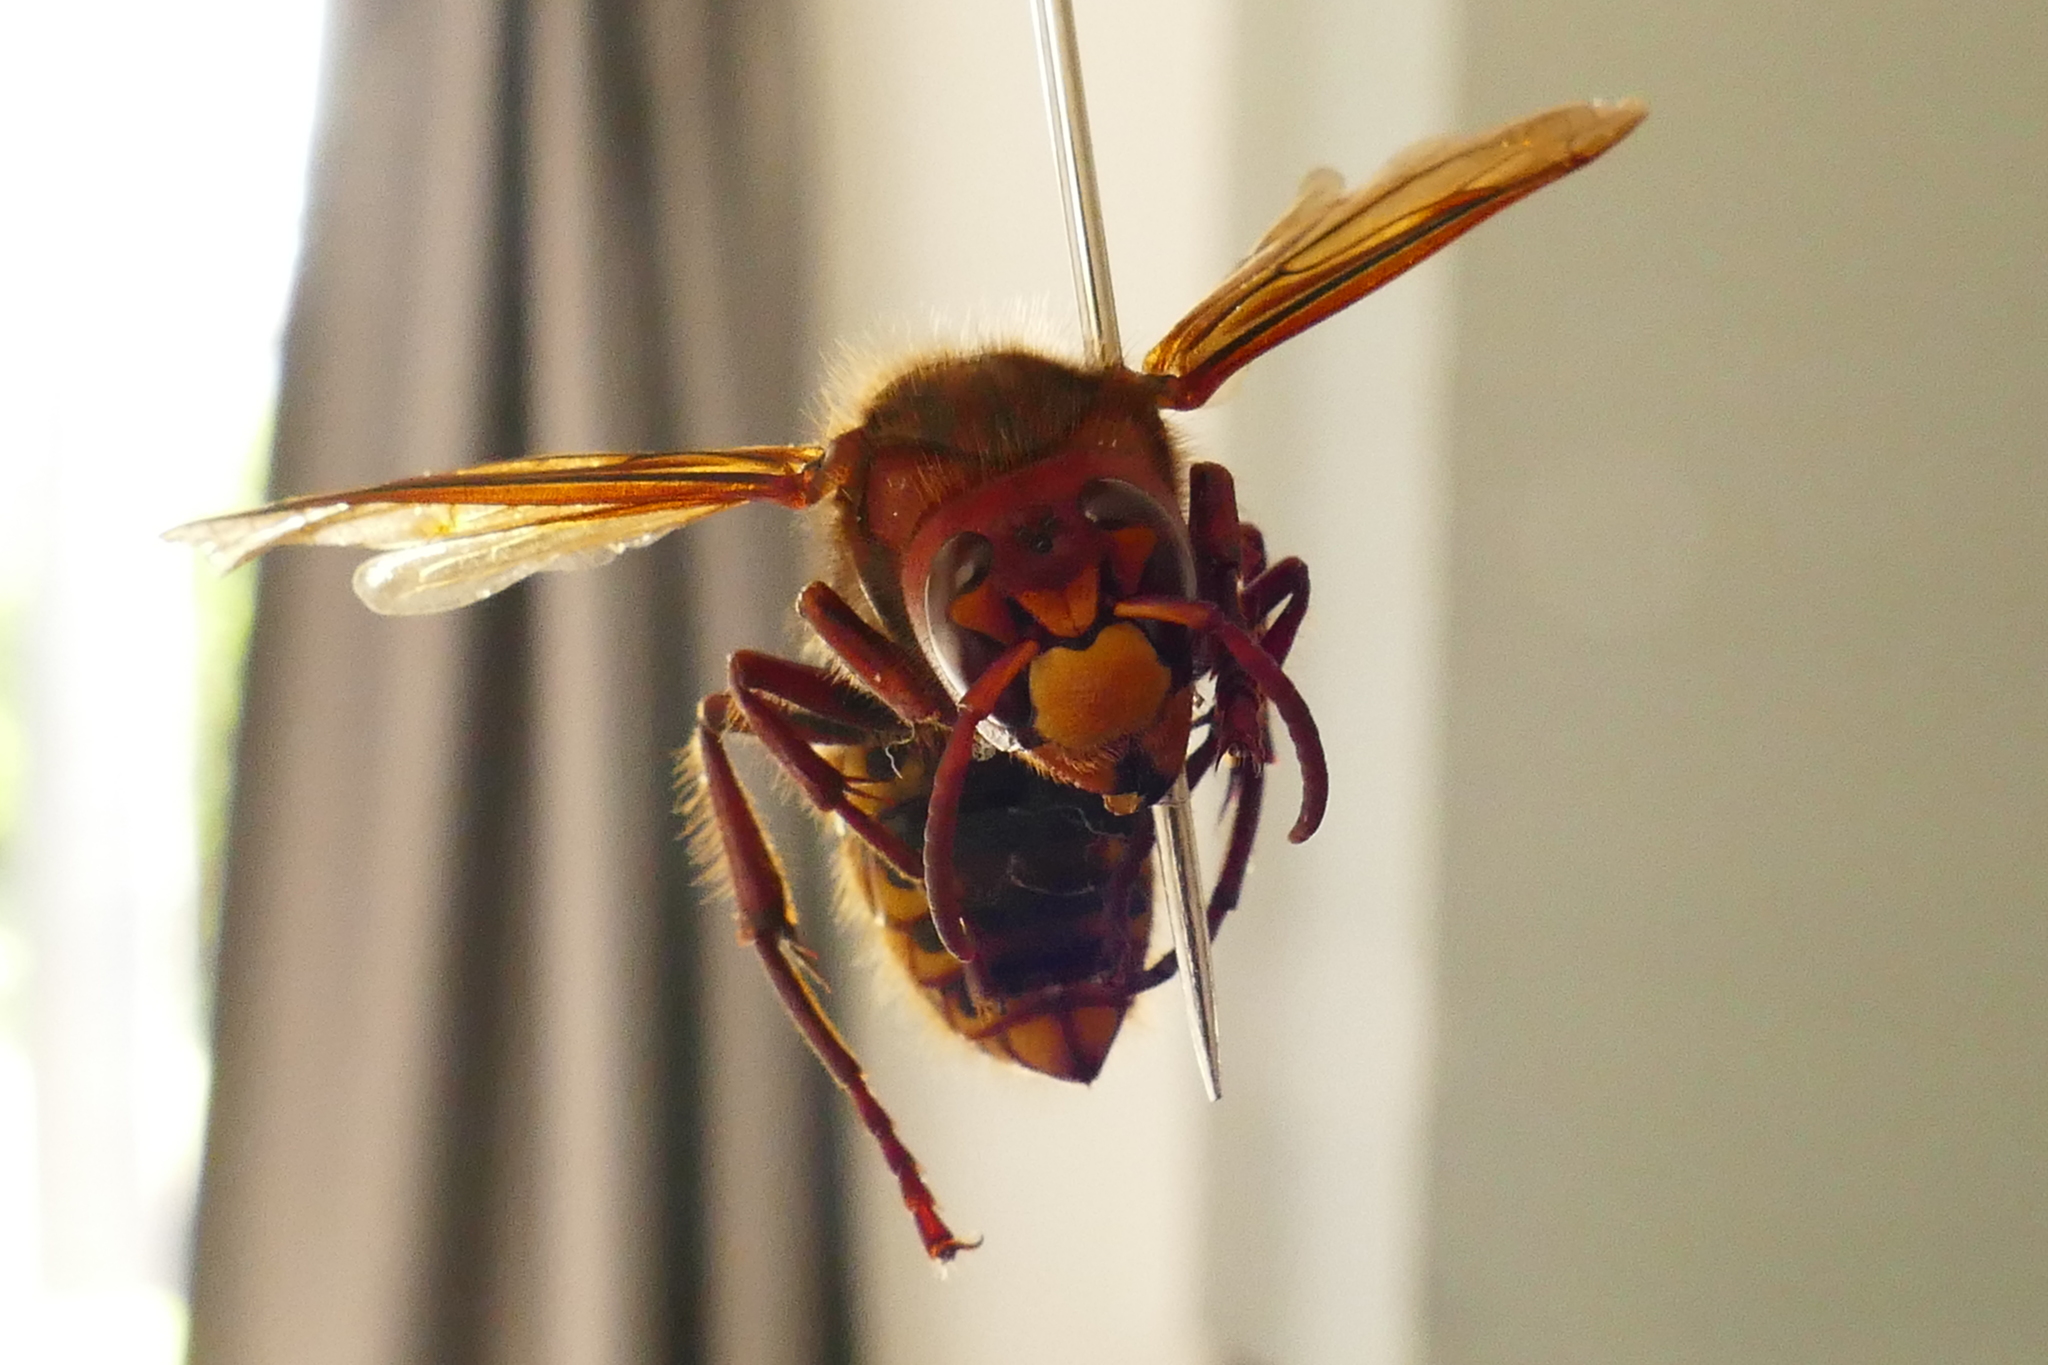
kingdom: Animalia
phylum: Arthropoda
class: Insecta
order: Hymenoptera
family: Vespidae
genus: Vespa
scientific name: Vespa crabro
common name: Hornet
